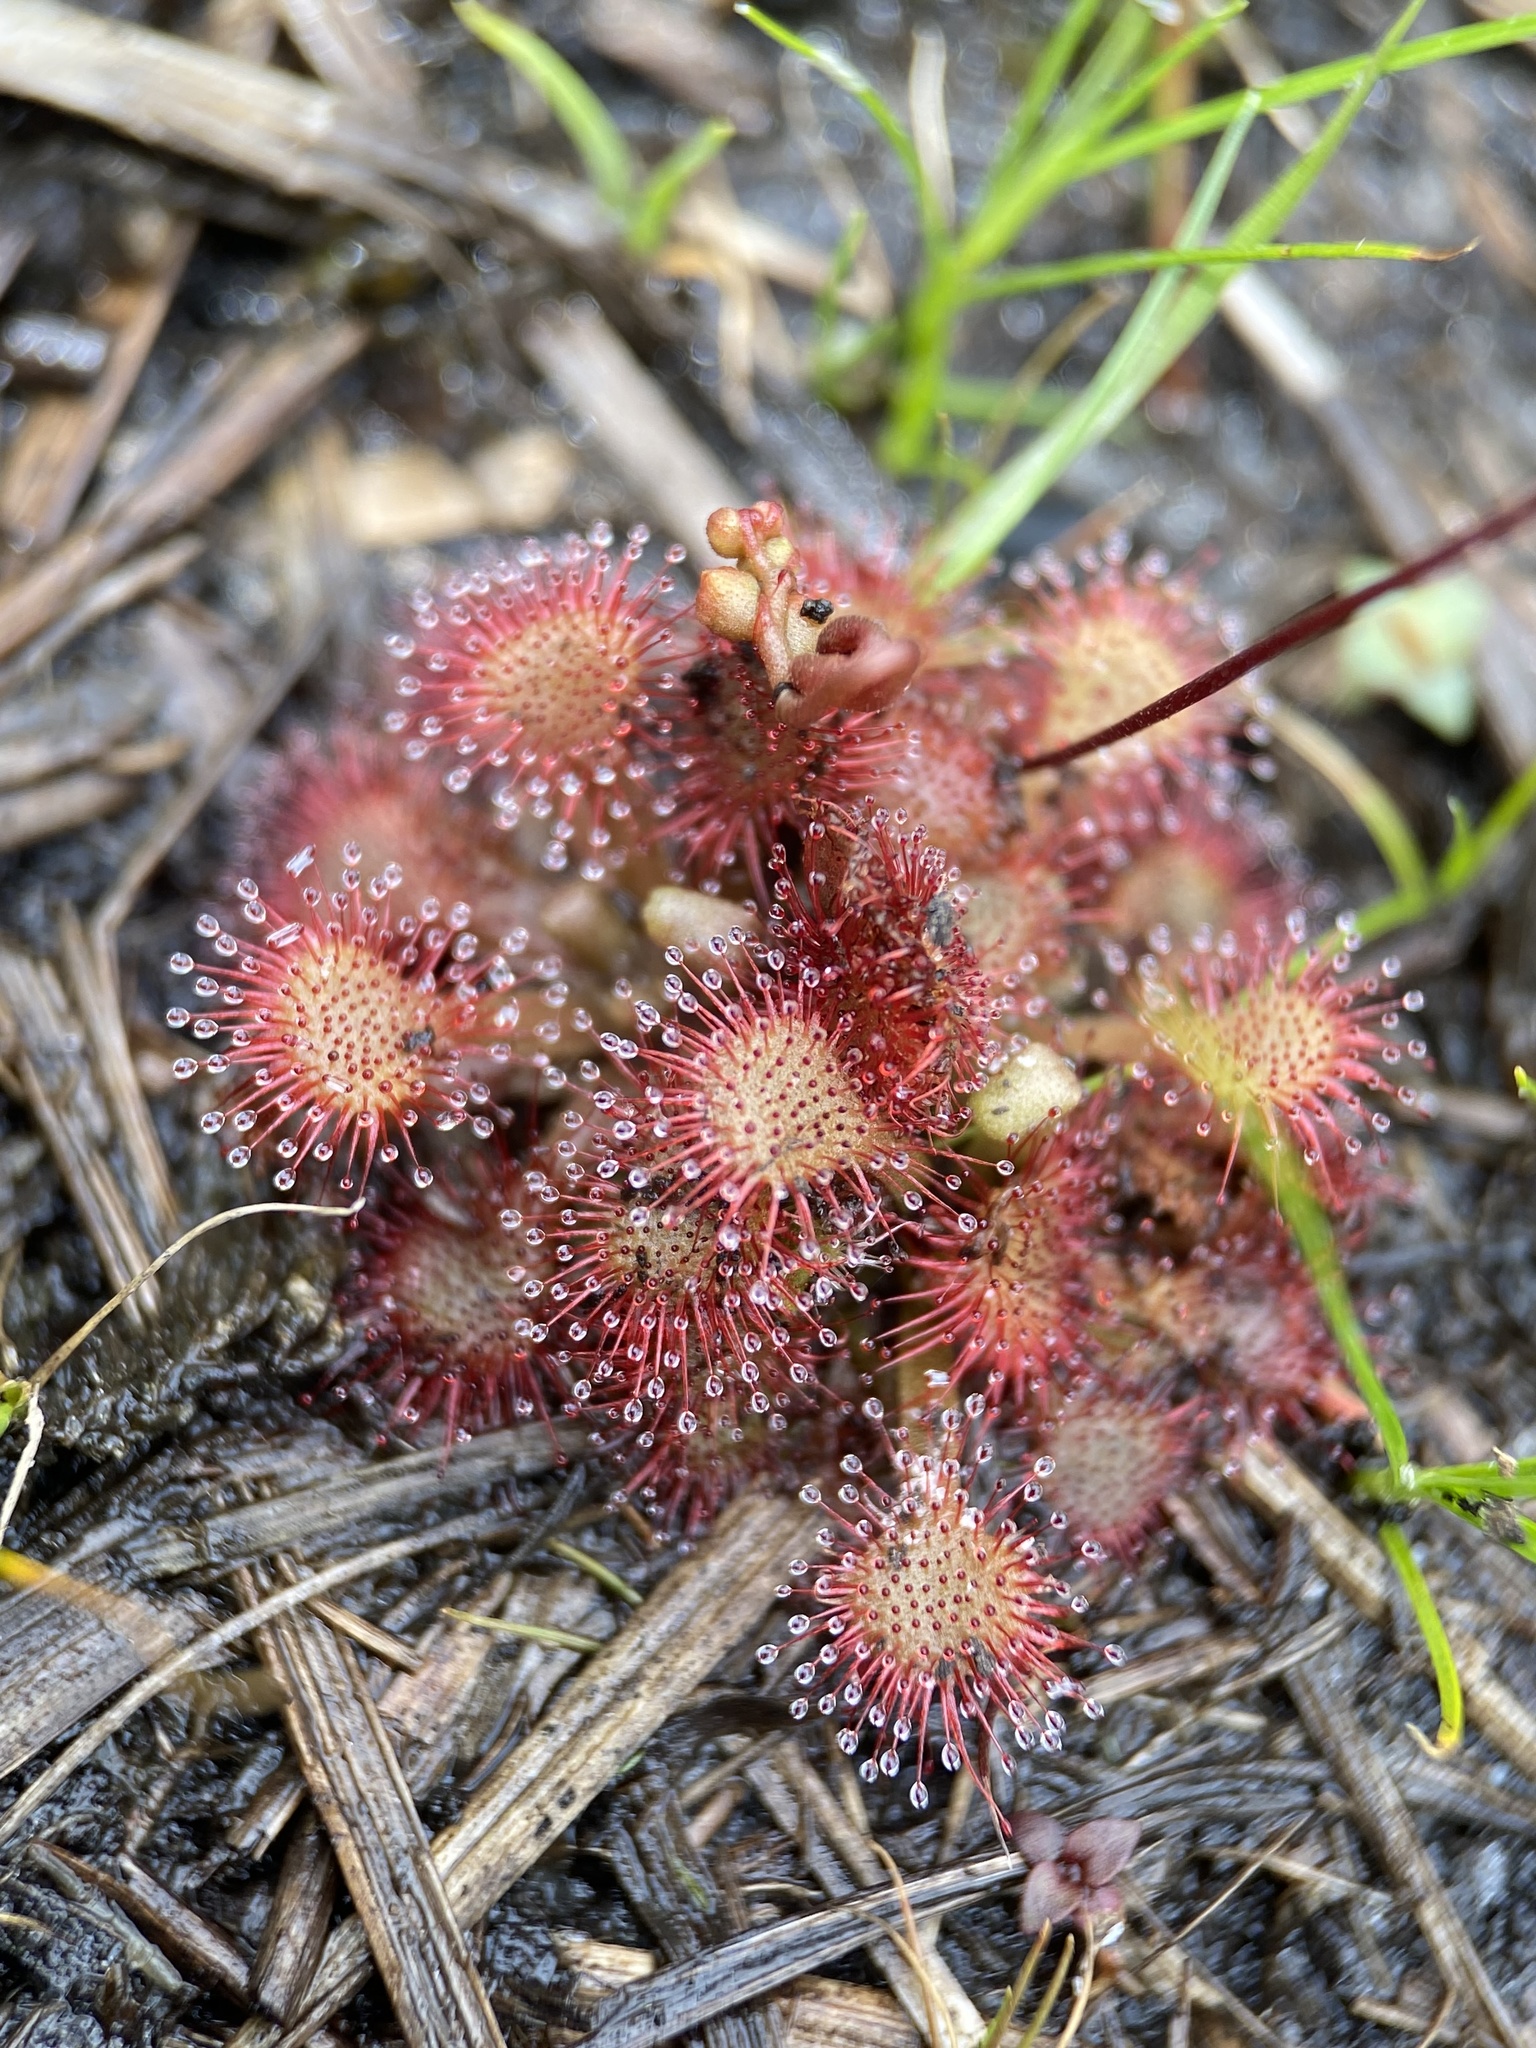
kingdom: Plantae
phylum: Tracheophyta
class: Magnoliopsida
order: Caryophyllales
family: Droseraceae
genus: Drosera
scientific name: Drosera capillaris
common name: Pink sundew
